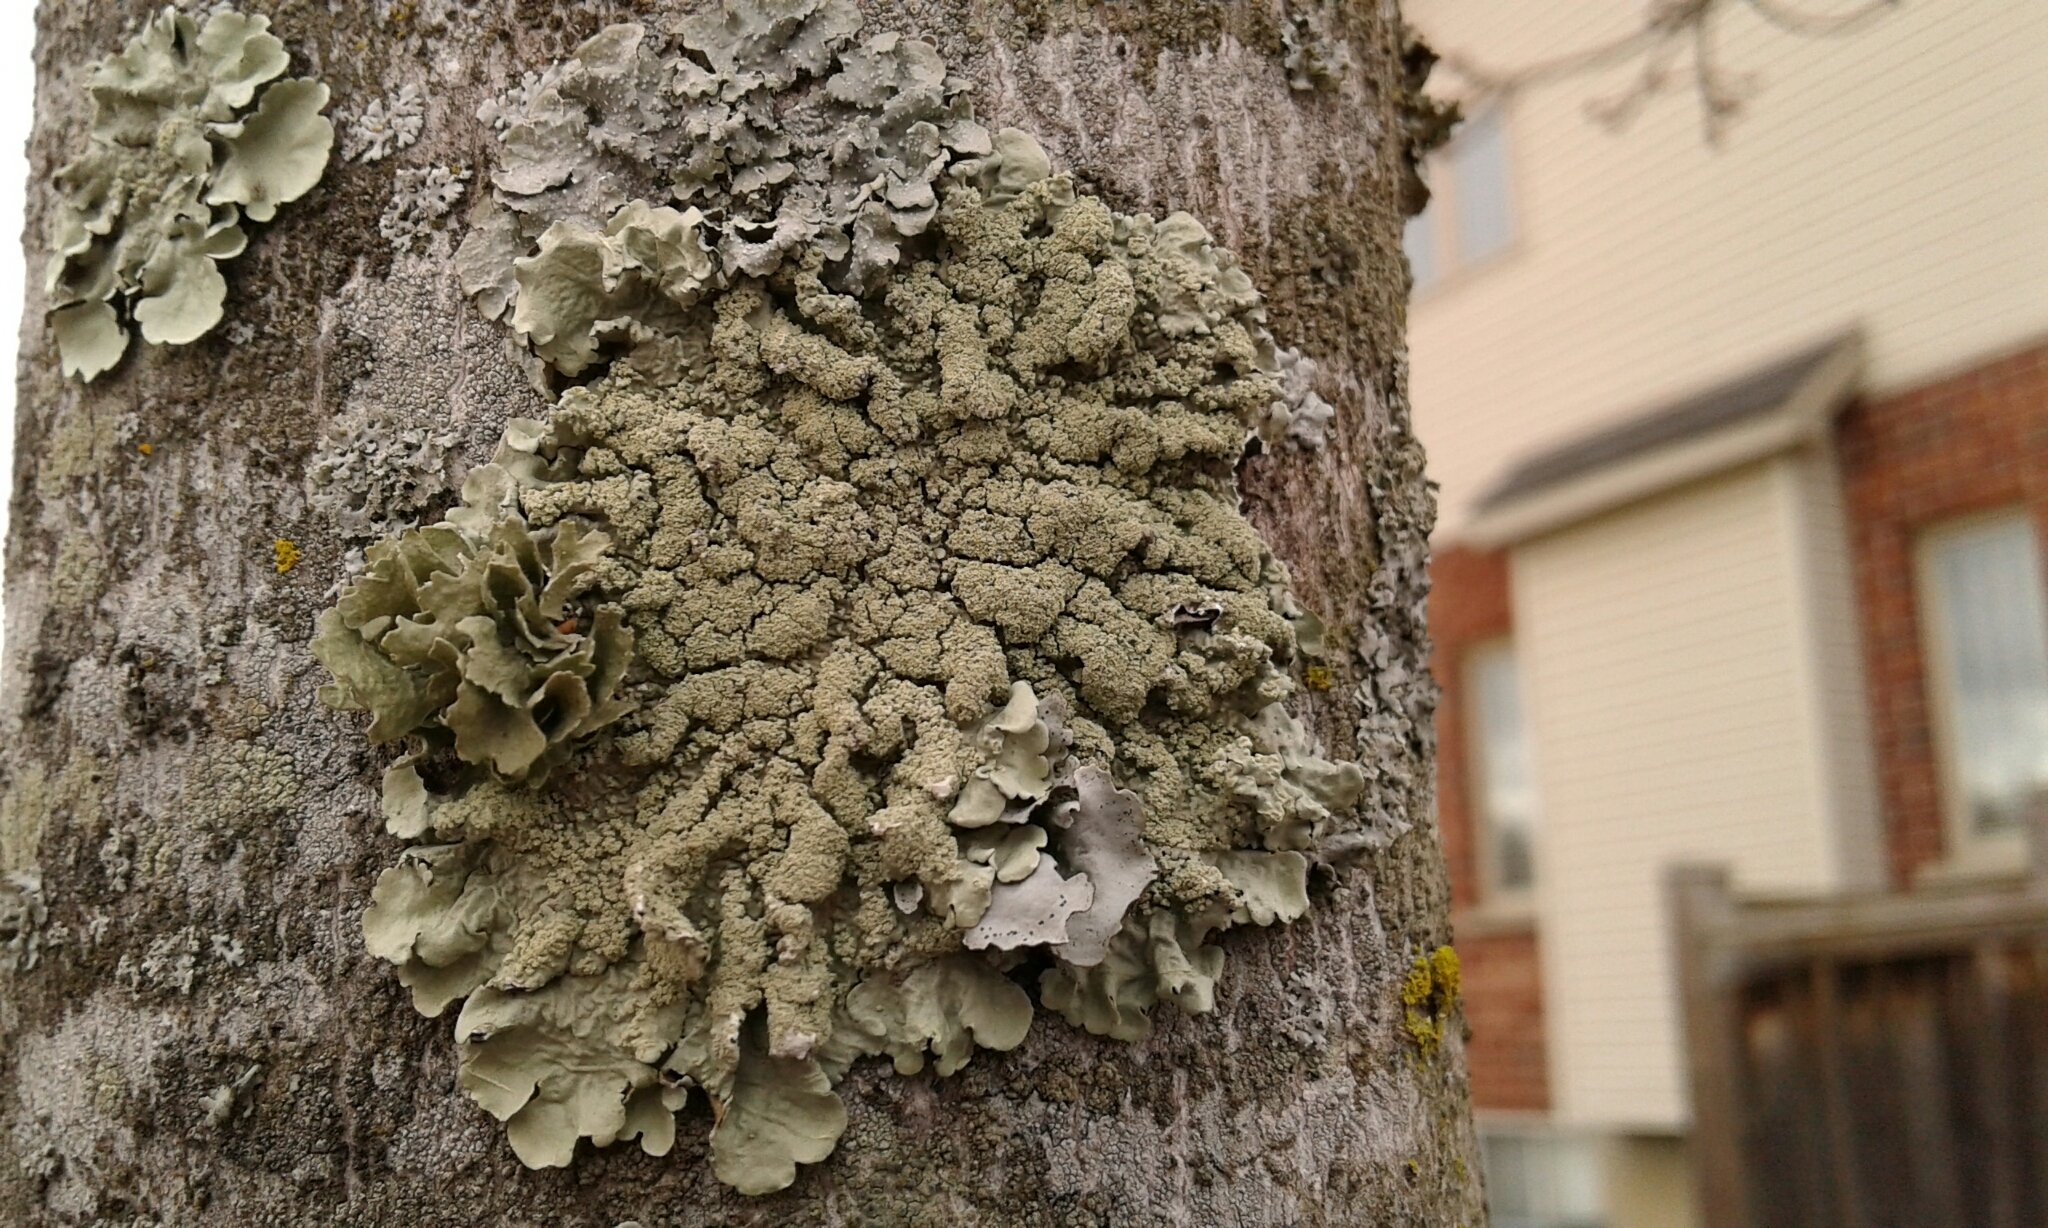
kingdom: Fungi
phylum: Ascomycota
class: Lecanoromycetes
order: Lecanorales
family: Parmeliaceae
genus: Flavoparmelia
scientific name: Flavoparmelia caperata
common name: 40-mile per hour lichen
